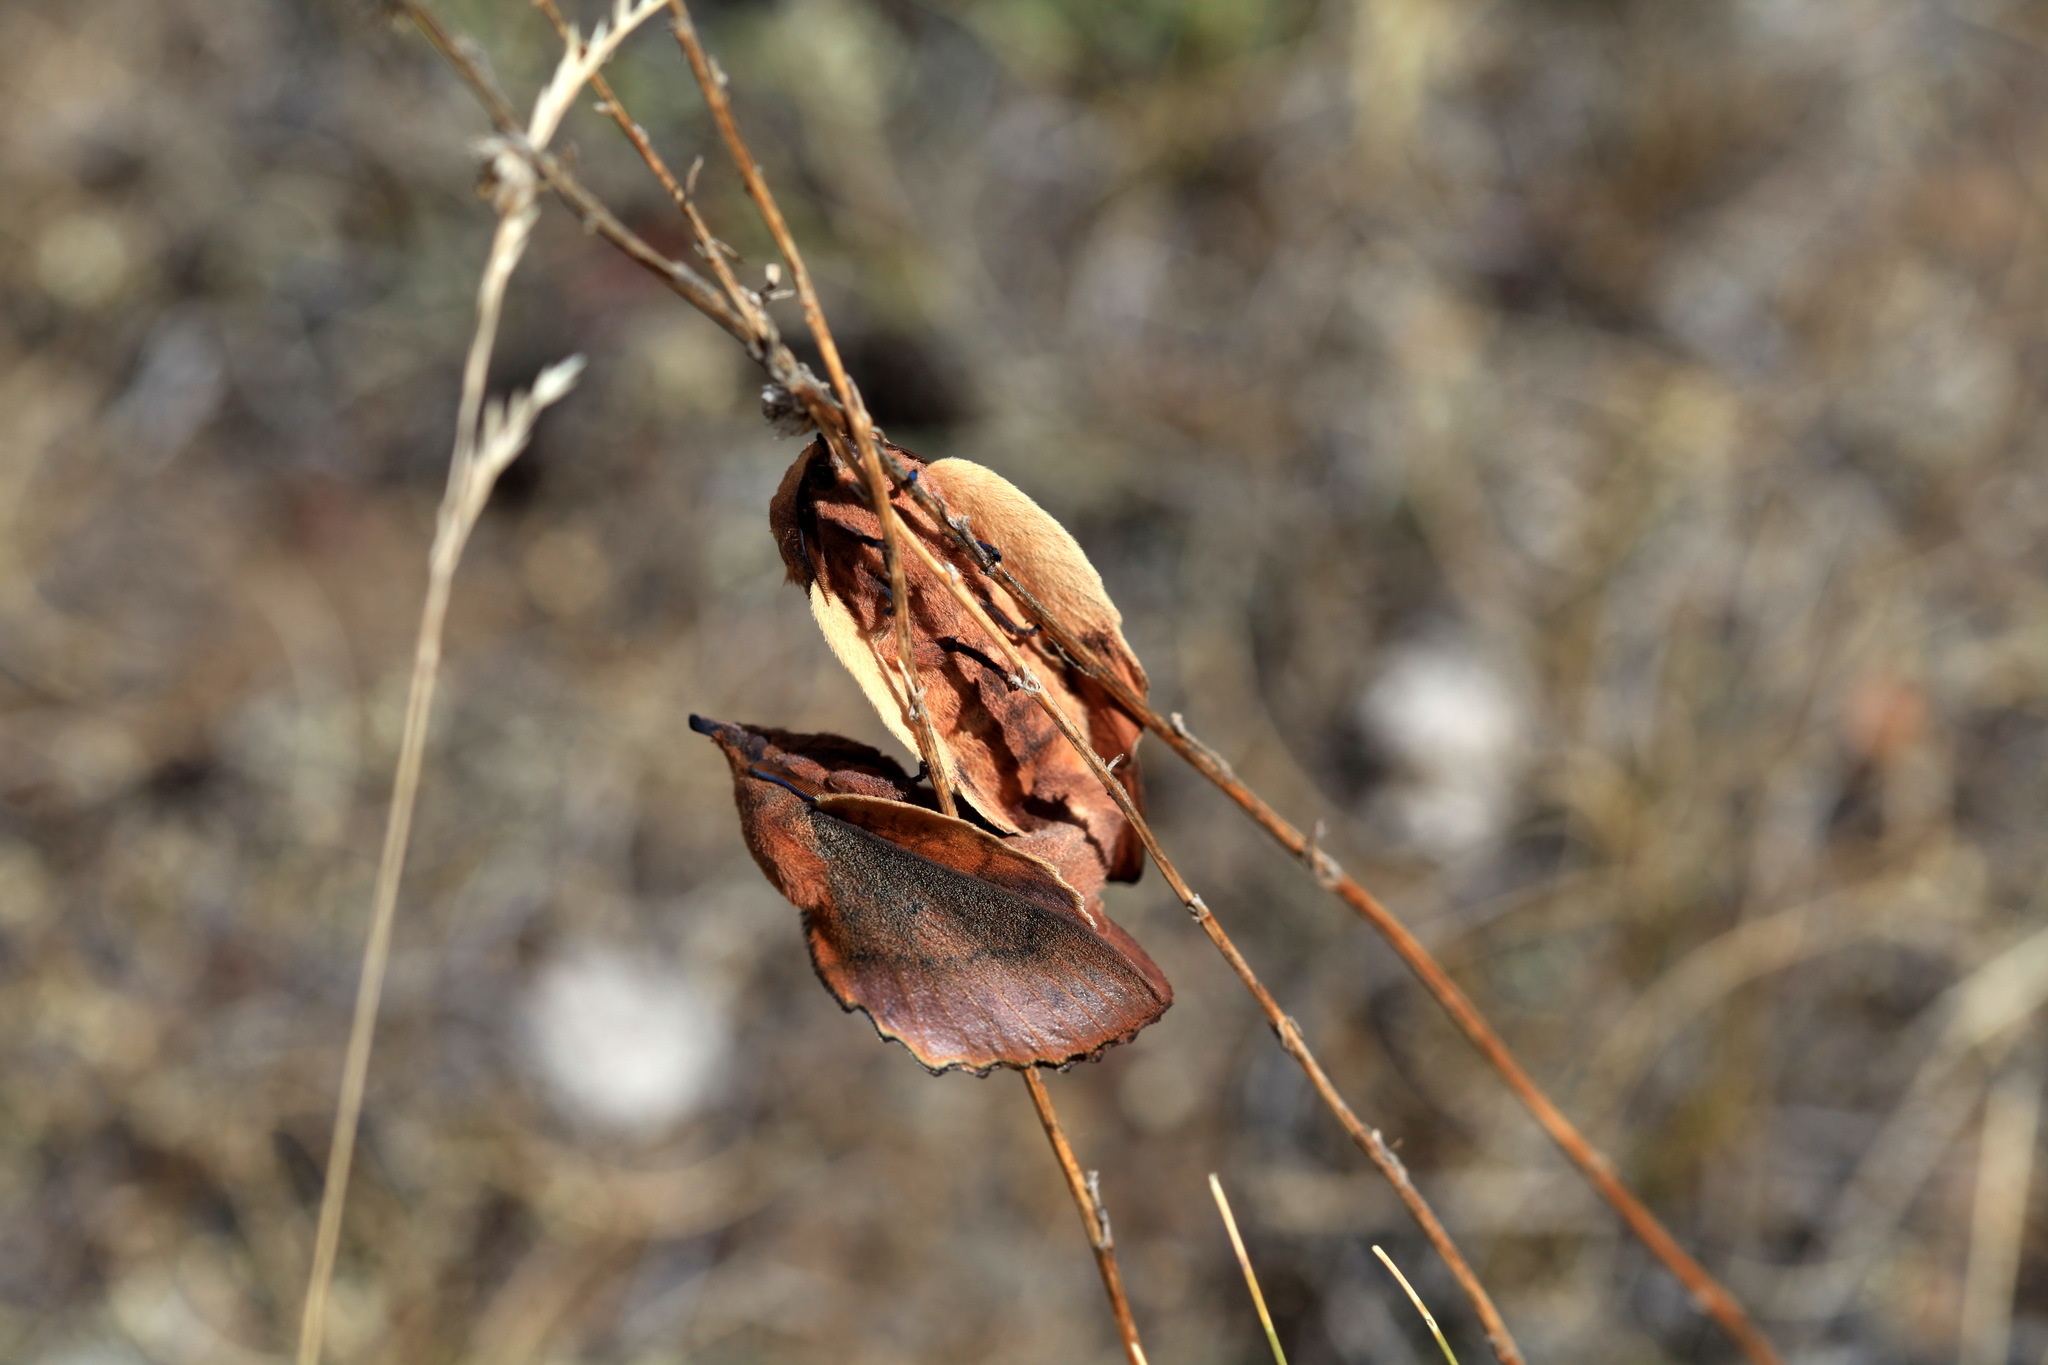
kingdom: Animalia
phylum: Arthropoda
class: Insecta
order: Lepidoptera
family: Lasiocampidae
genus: Gastropacha
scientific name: Gastropacha quercifolia
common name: Lappet
